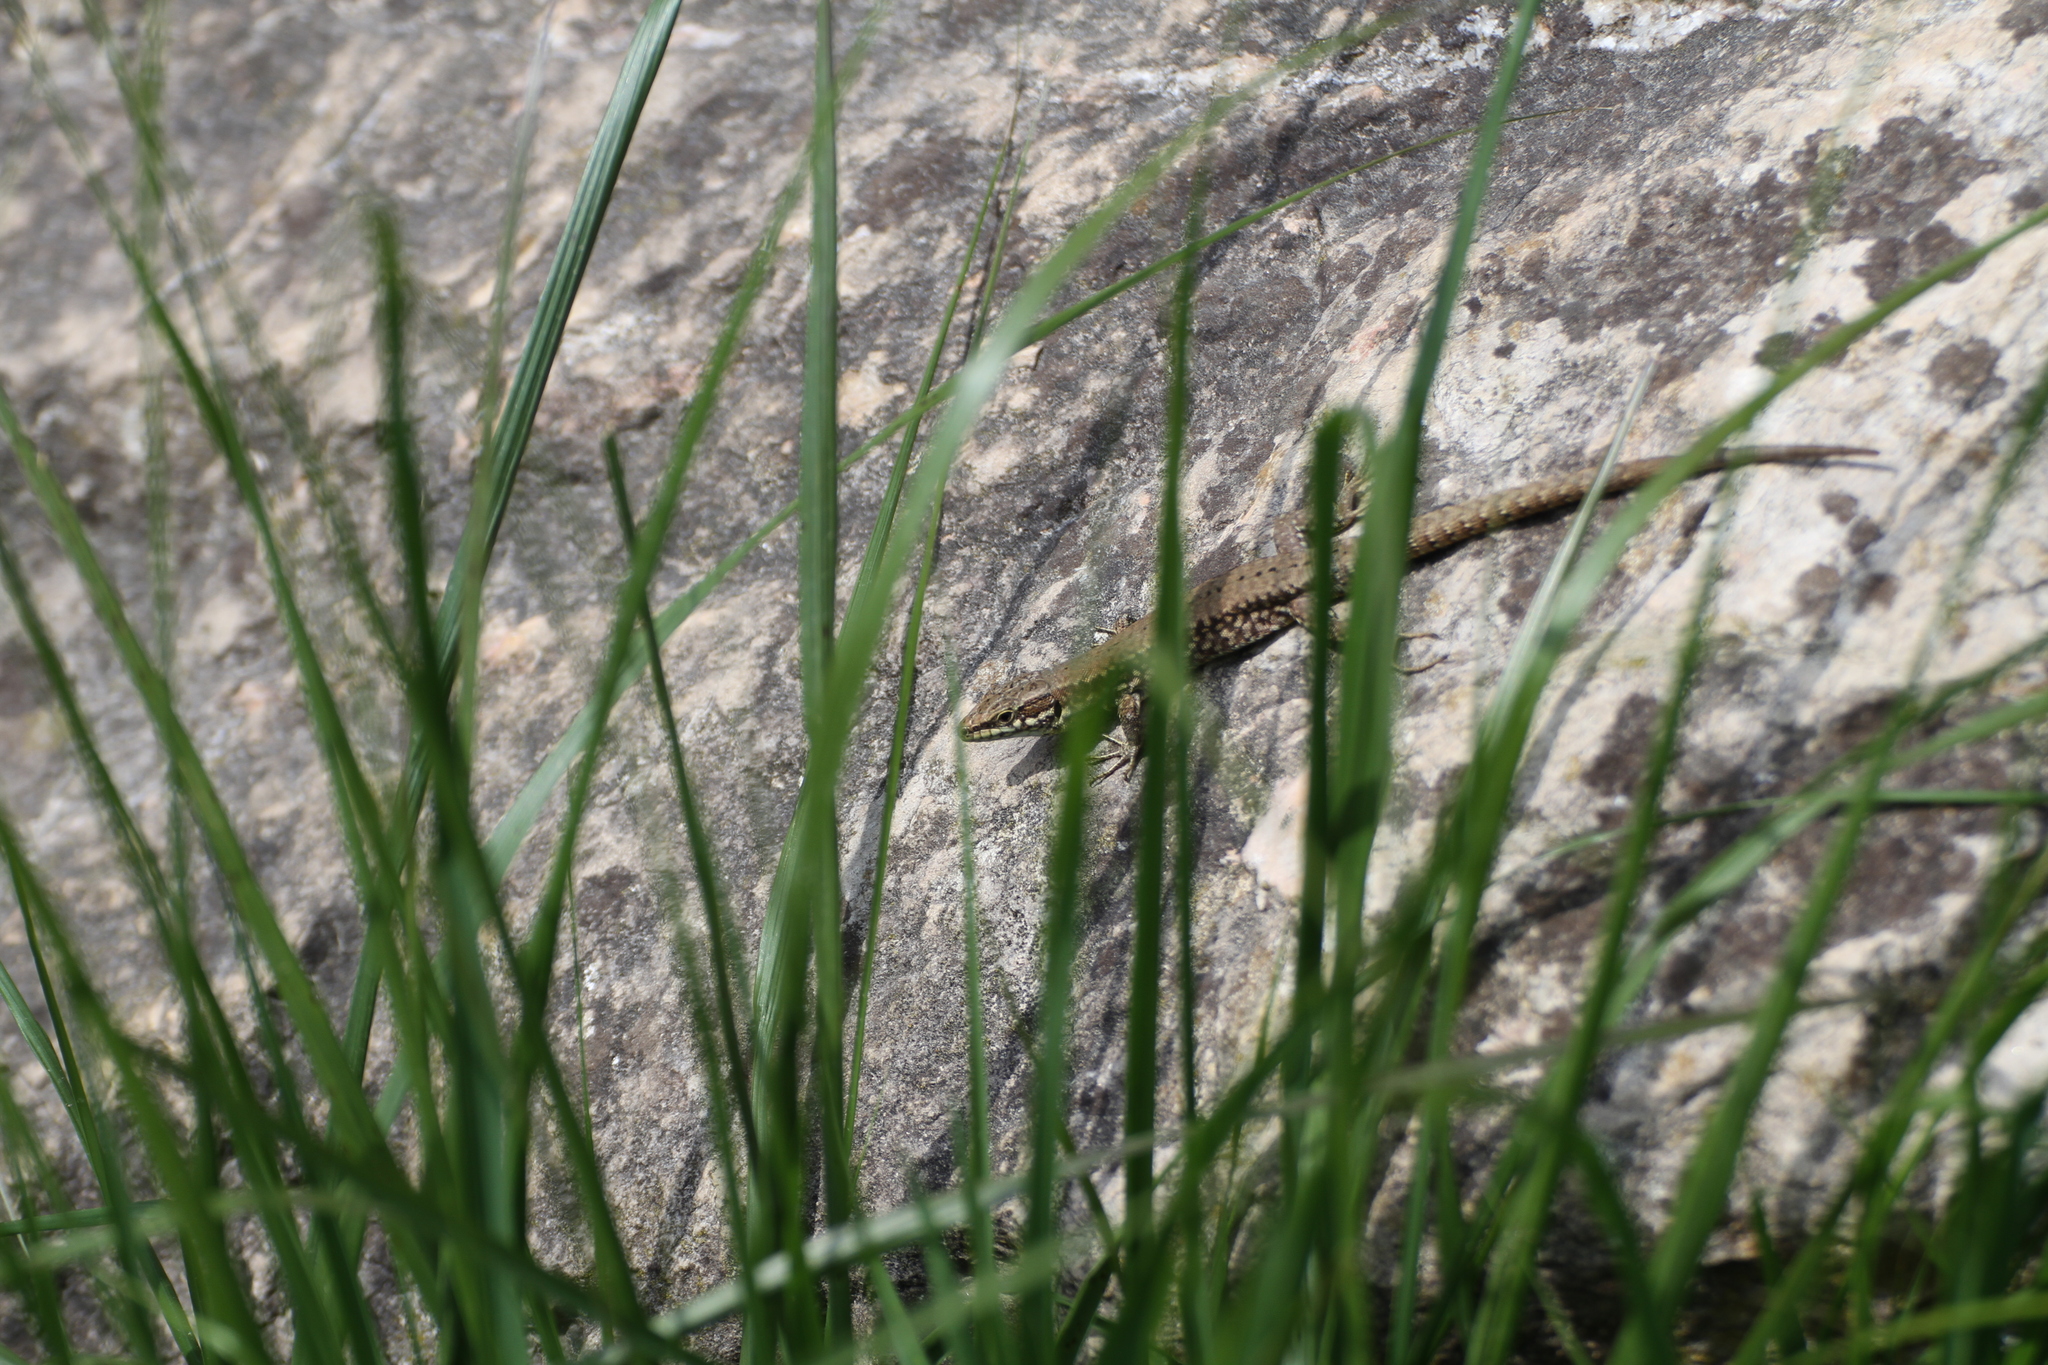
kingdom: Animalia
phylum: Chordata
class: Squamata
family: Lacertidae
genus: Podarcis
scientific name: Podarcis muralis
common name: Common wall lizard
